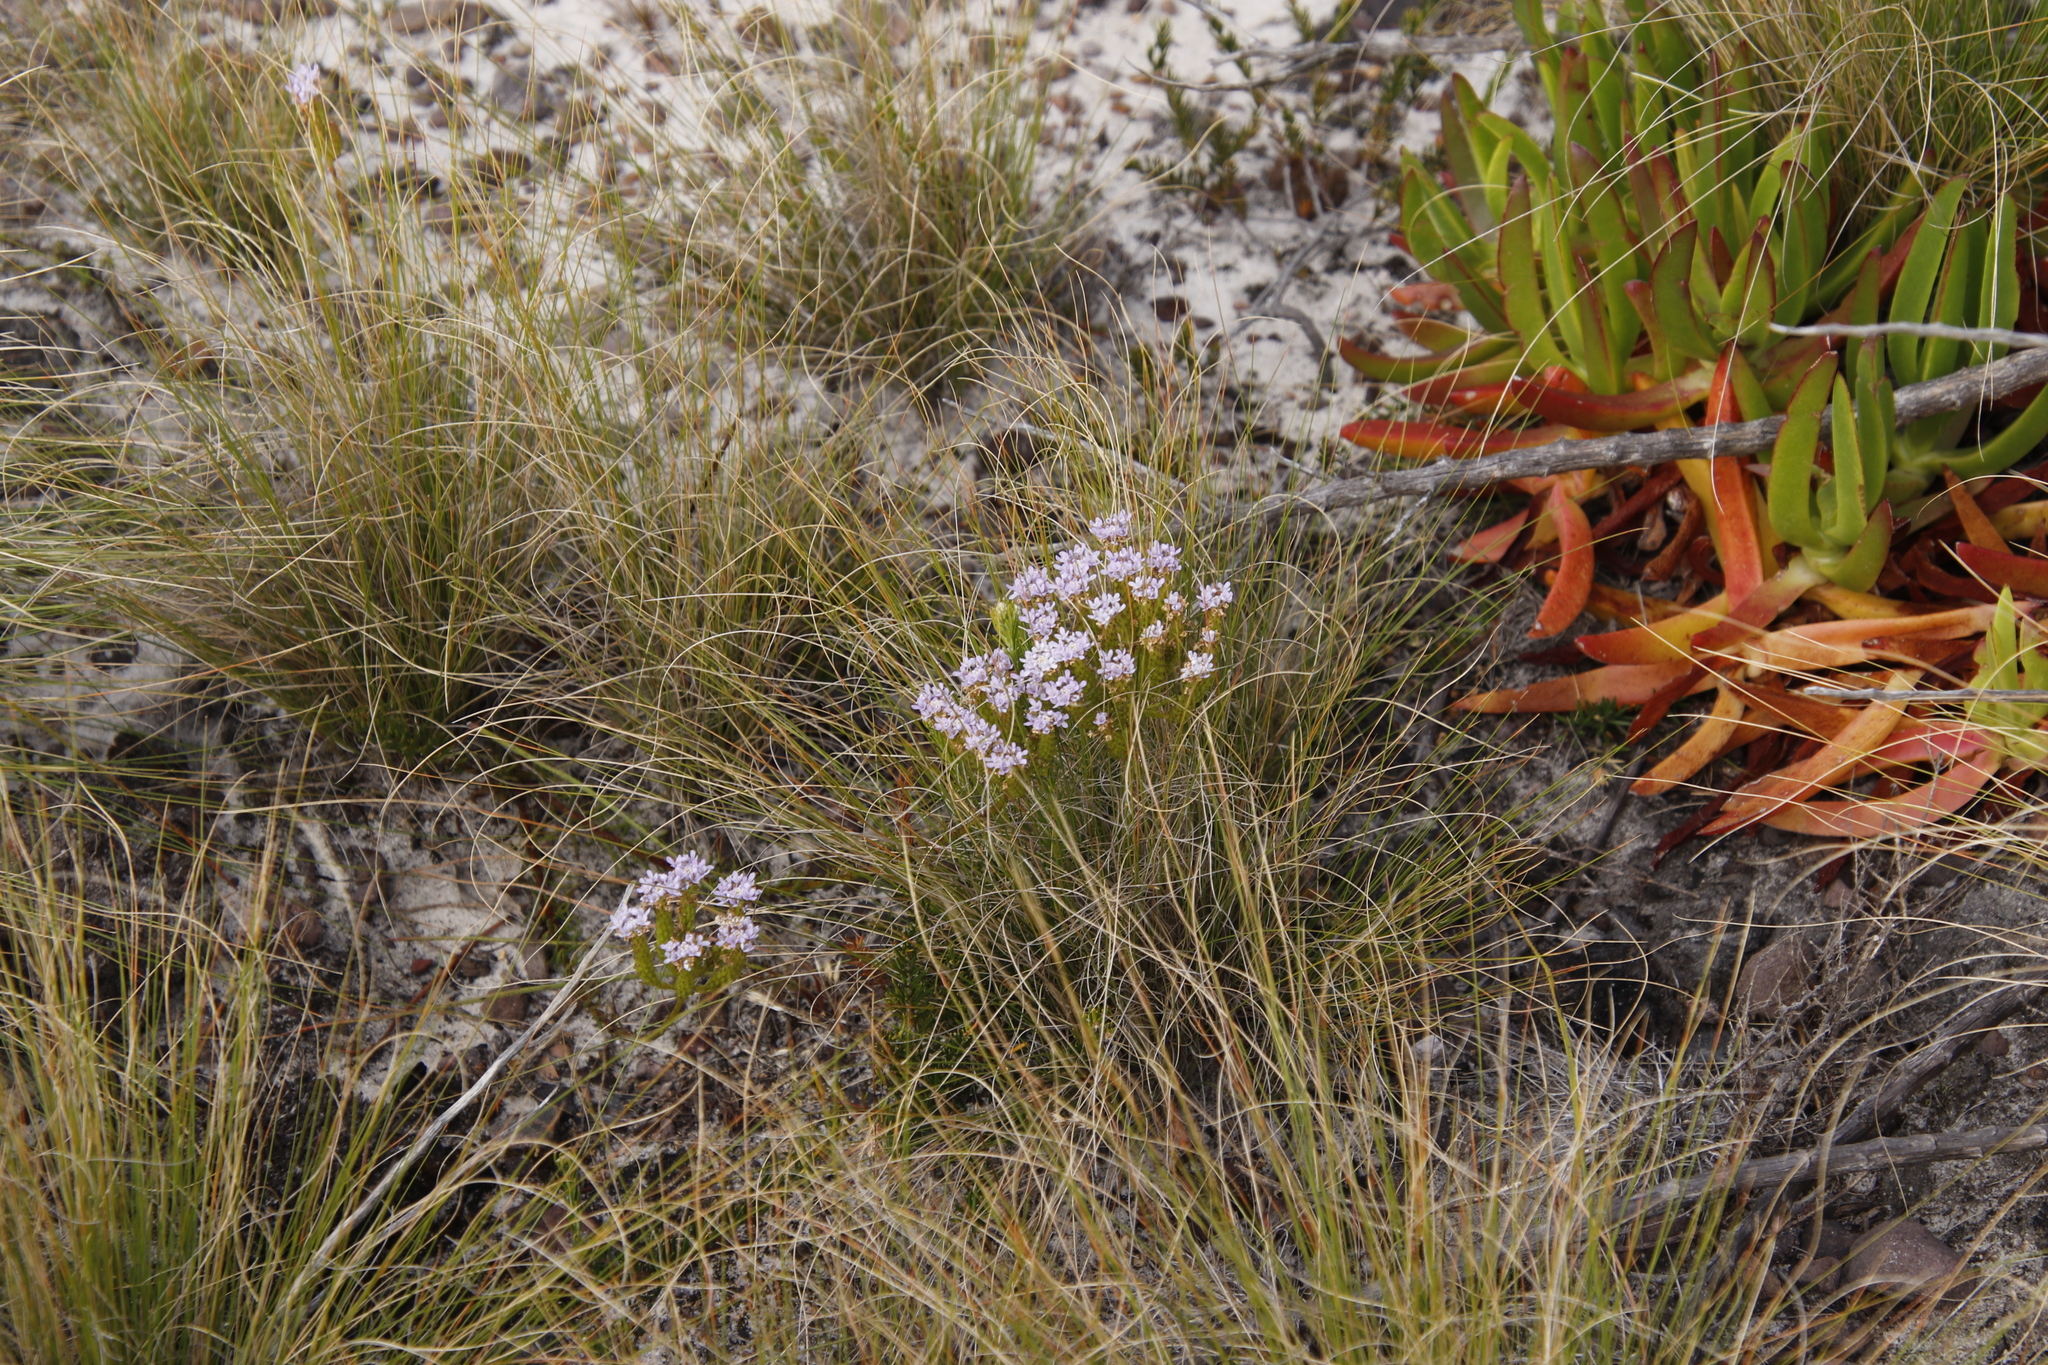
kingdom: Plantae
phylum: Tracheophyta
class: Magnoliopsida
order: Lamiales
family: Scrophulariaceae
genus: Pseudoselago
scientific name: Pseudoselago spuria
